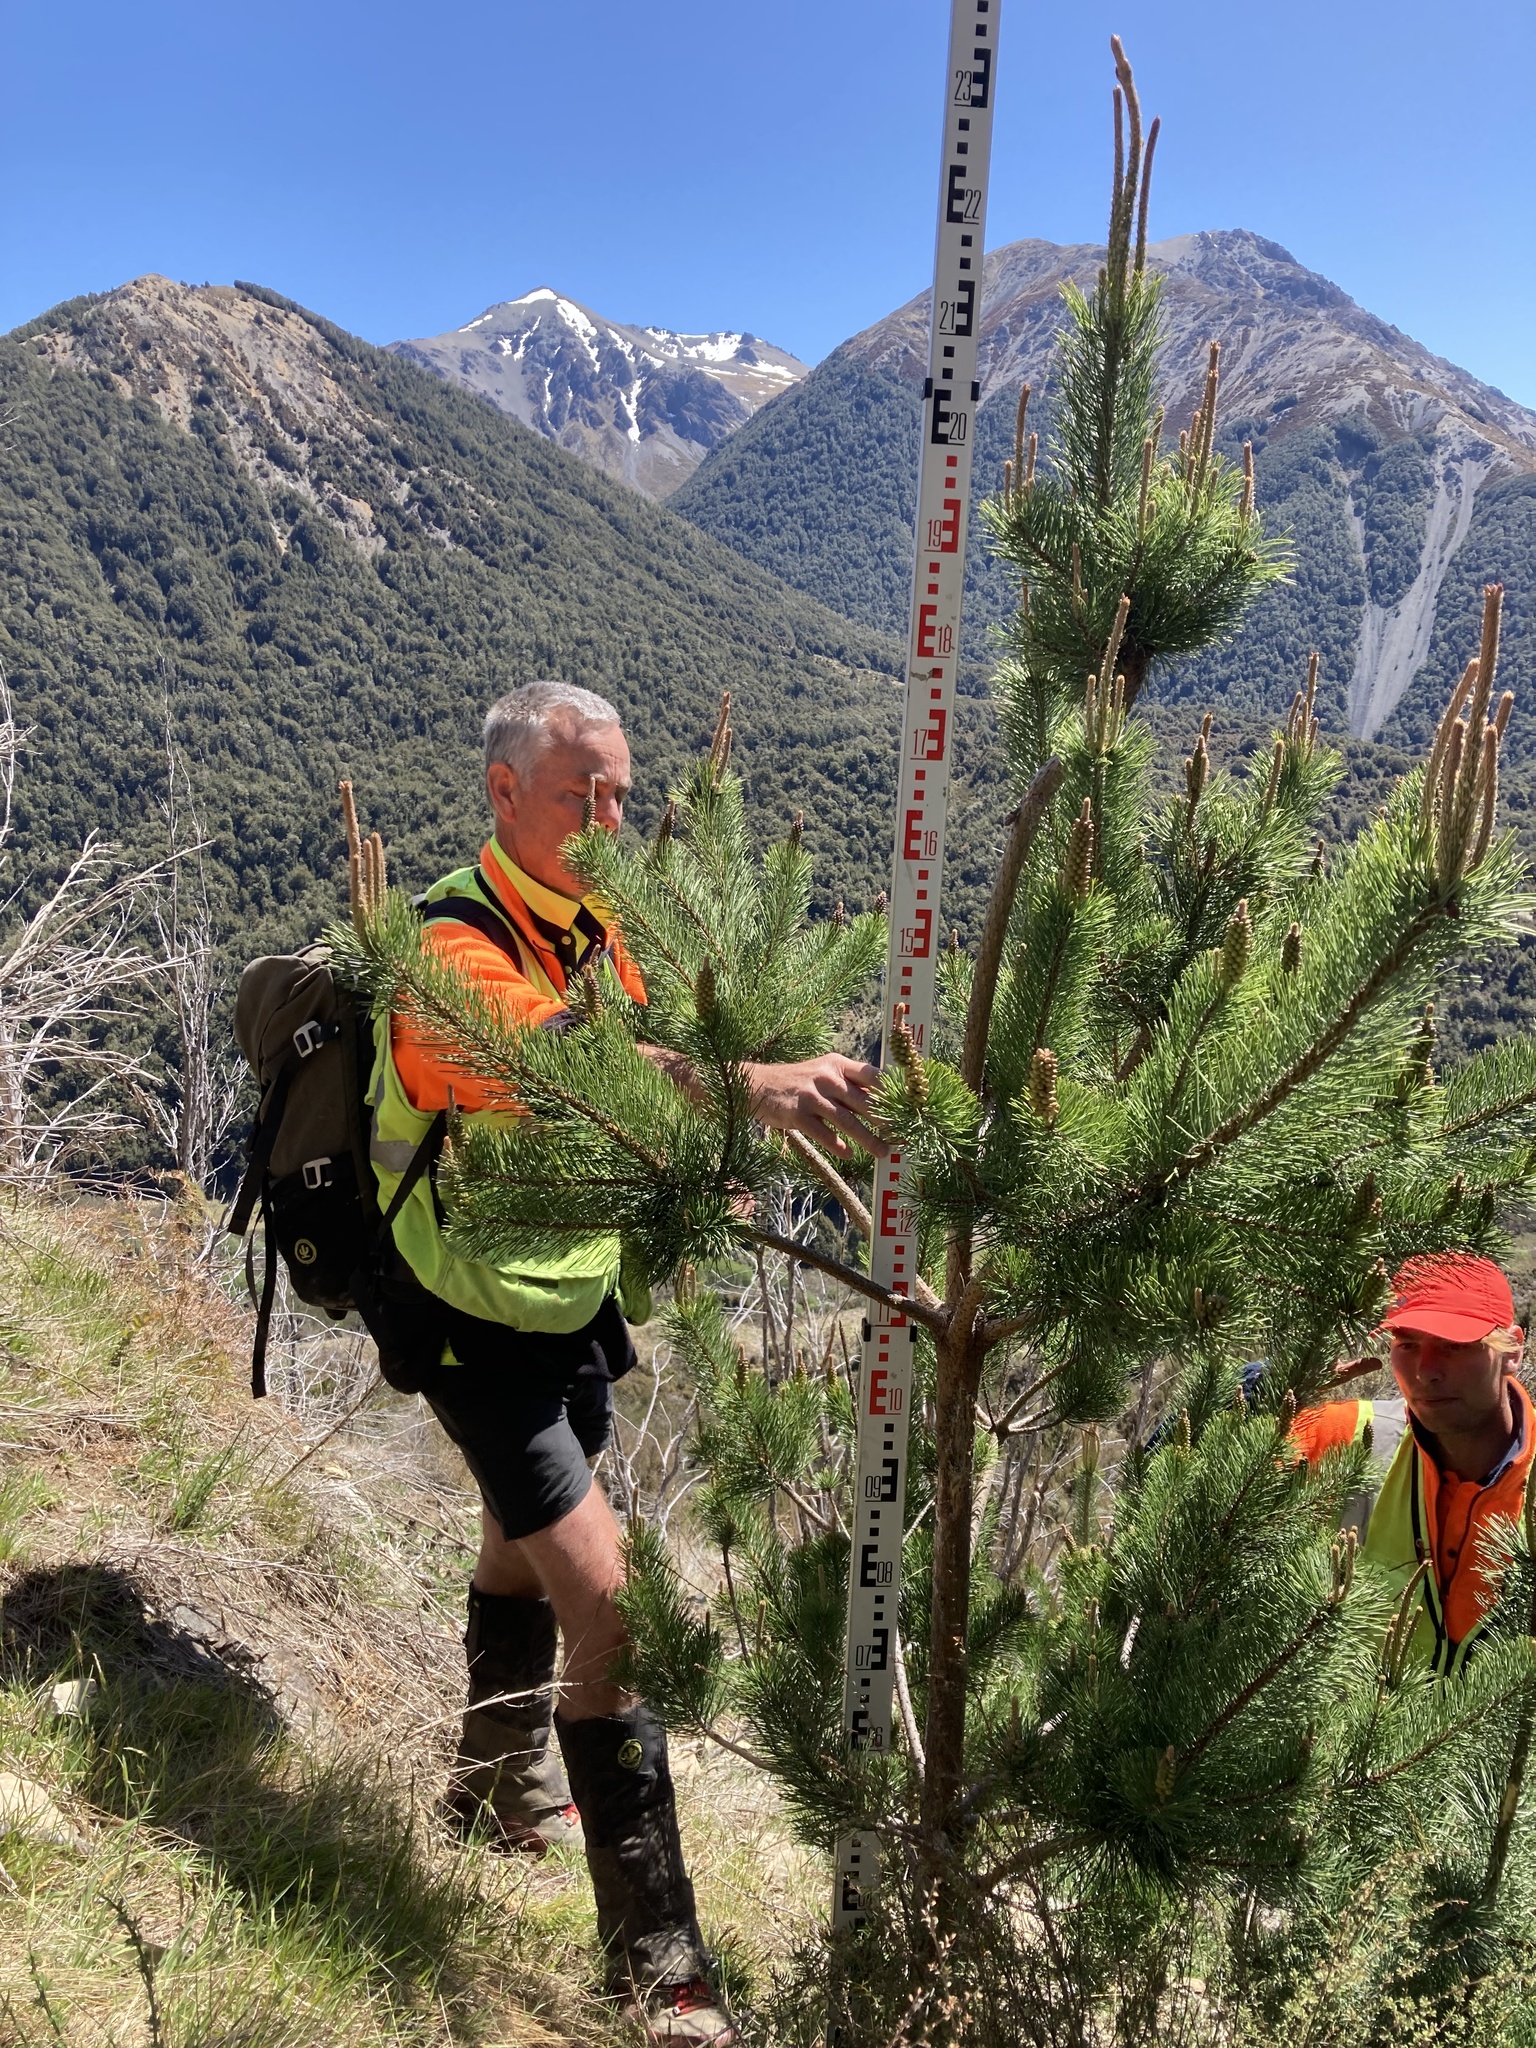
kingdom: Plantae
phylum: Tracheophyta
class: Pinopsida
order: Pinales
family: Pinaceae
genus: Pinus
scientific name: Pinus contorta
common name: Lodgepole pine
